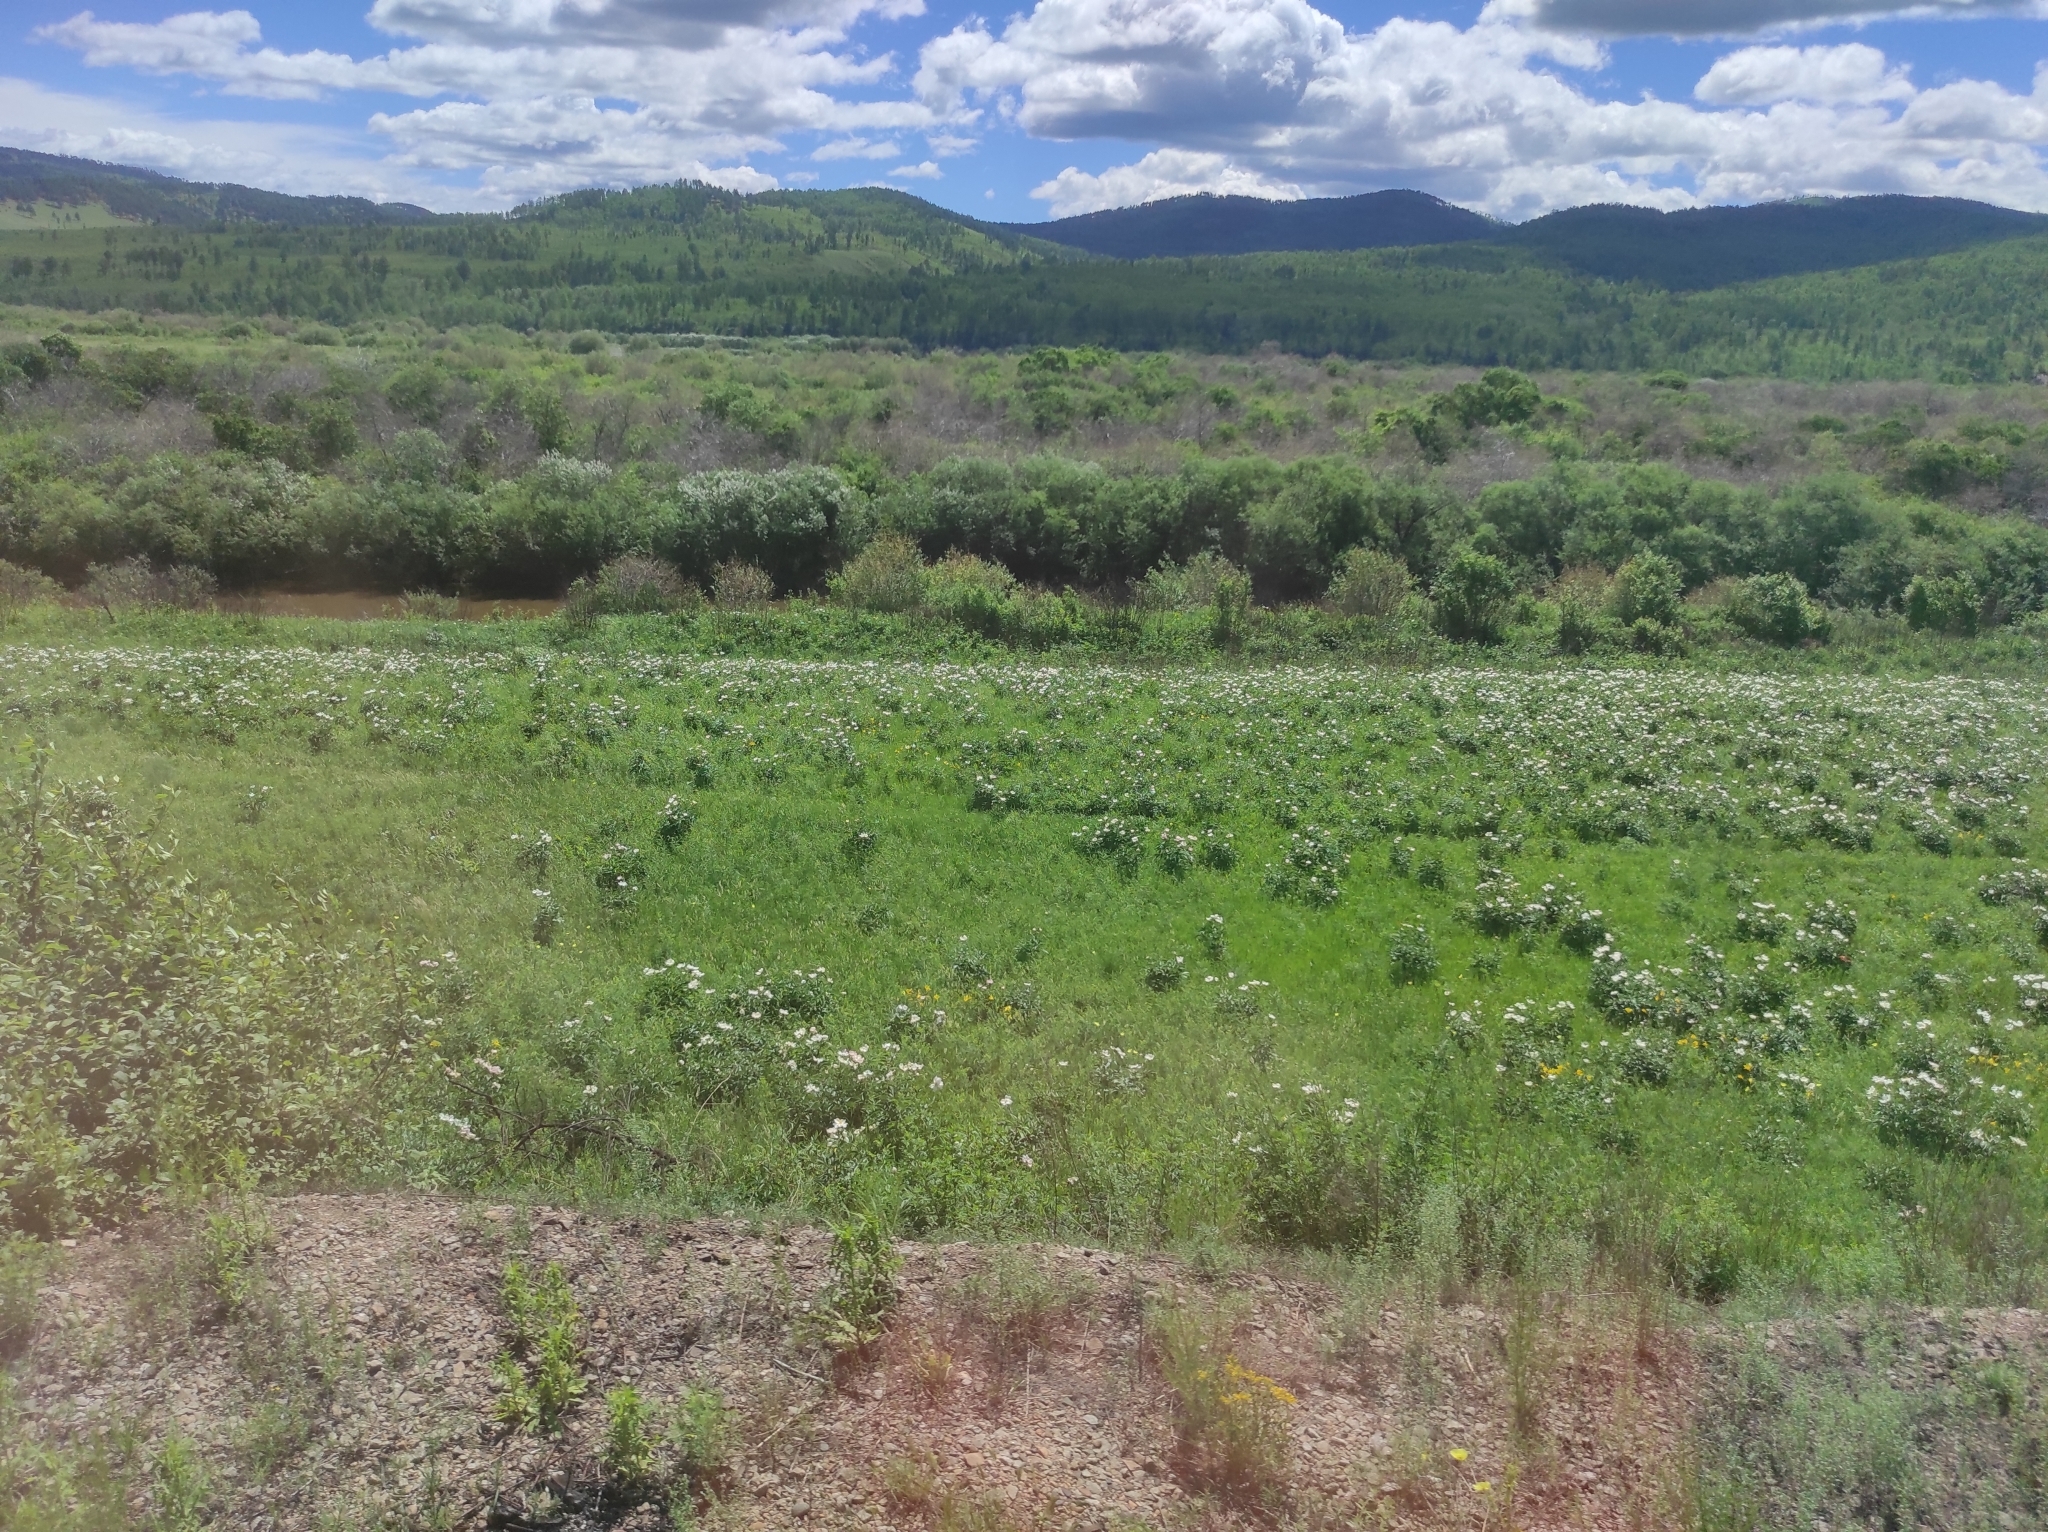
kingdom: Plantae
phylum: Tracheophyta
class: Magnoliopsida
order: Saxifragales
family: Paeoniaceae
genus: Paeonia
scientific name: Paeonia lactiflora
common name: Chinese peony
